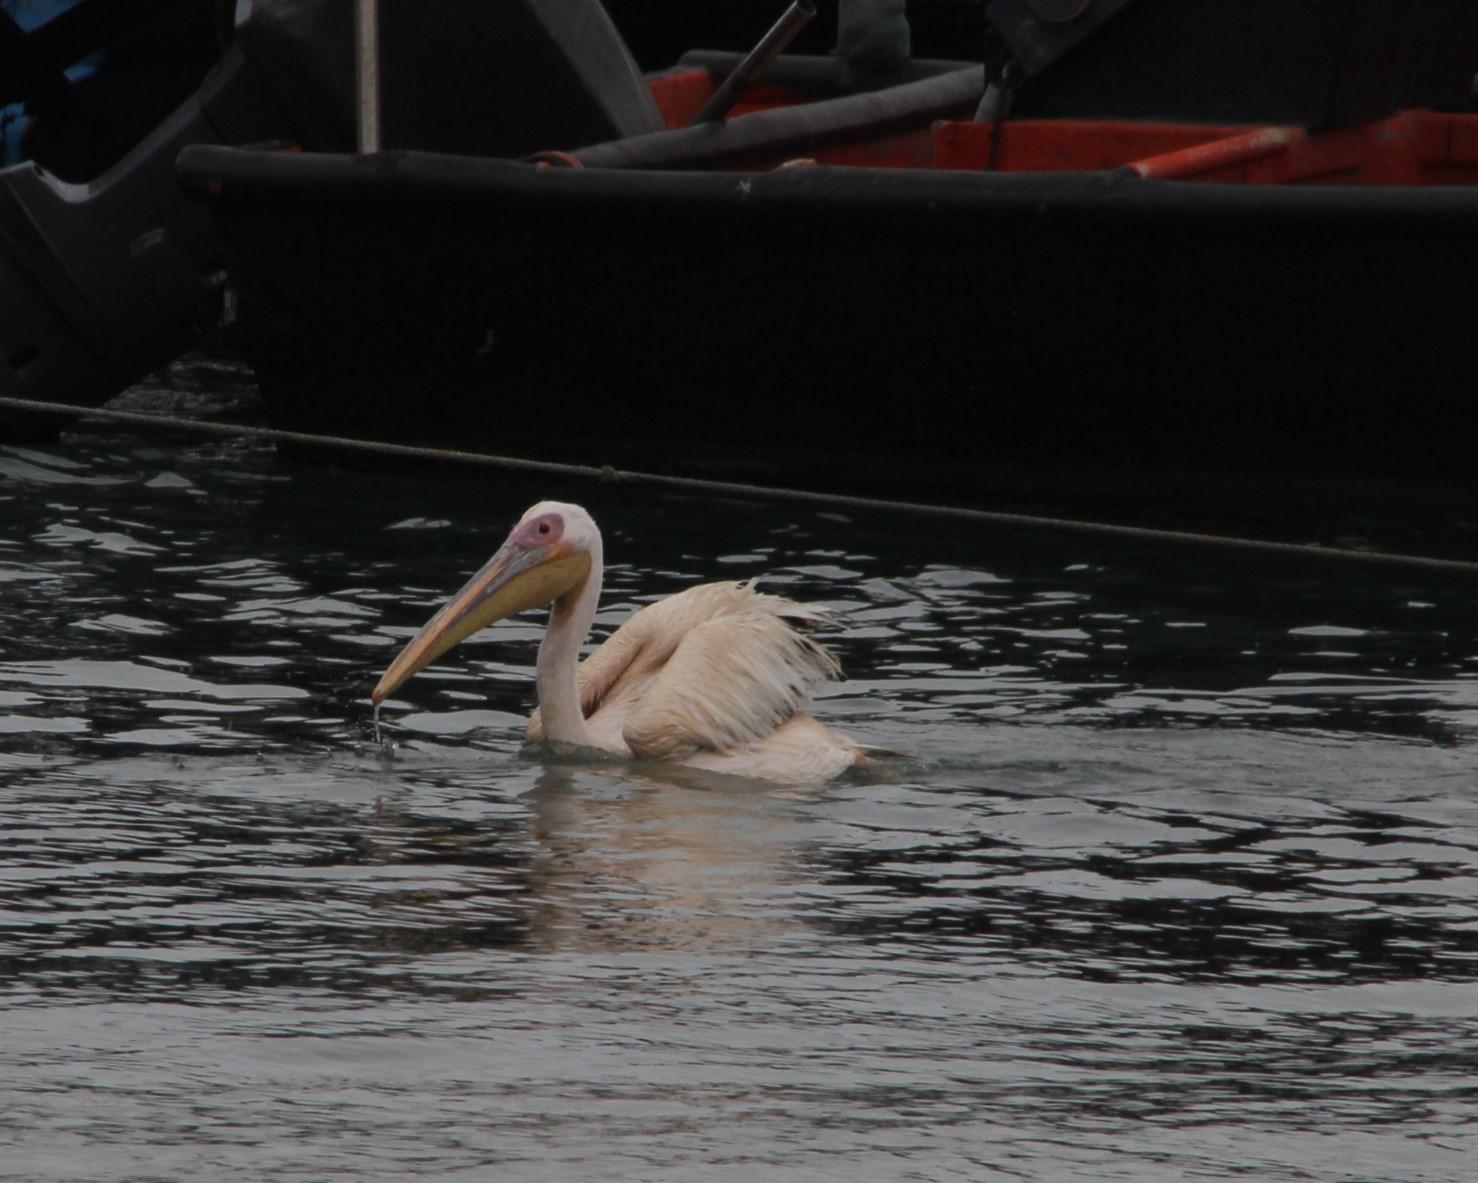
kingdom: Animalia
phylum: Chordata
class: Aves
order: Pelecaniformes
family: Pelecanidae
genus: Pelecanus
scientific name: Pelecanus onocrotalus
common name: Great white pelican
